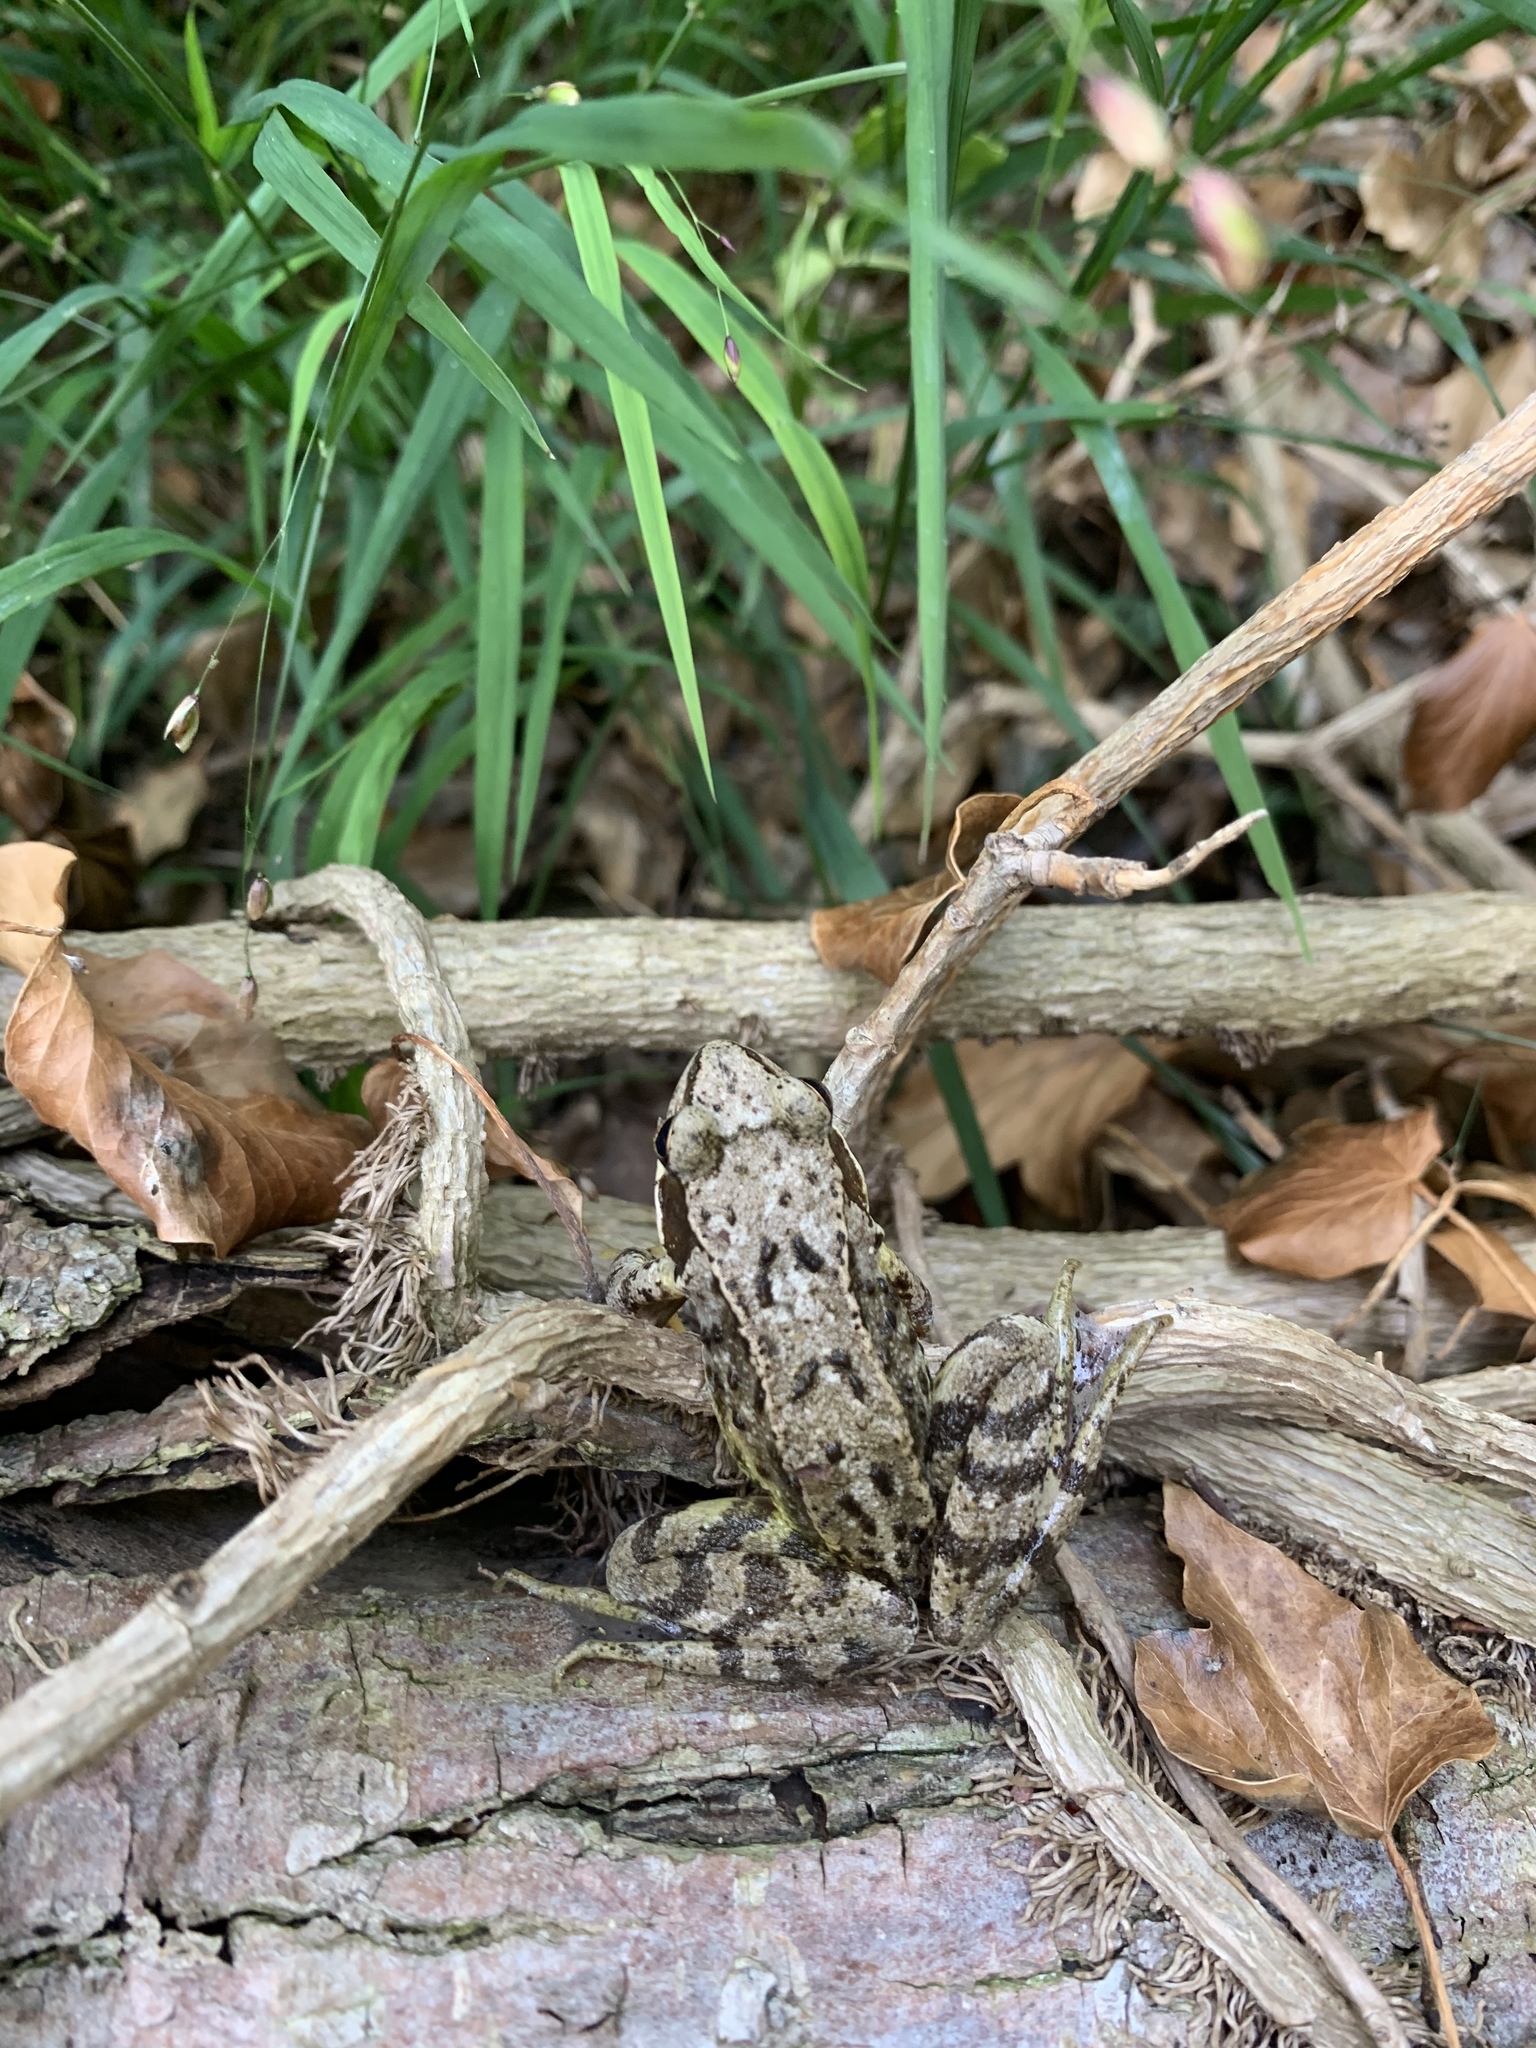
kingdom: Animalia
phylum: Chordata
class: Amphibia
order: Anura
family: Ranidae
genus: Rana
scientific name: Rana temporaria
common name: Common frog
